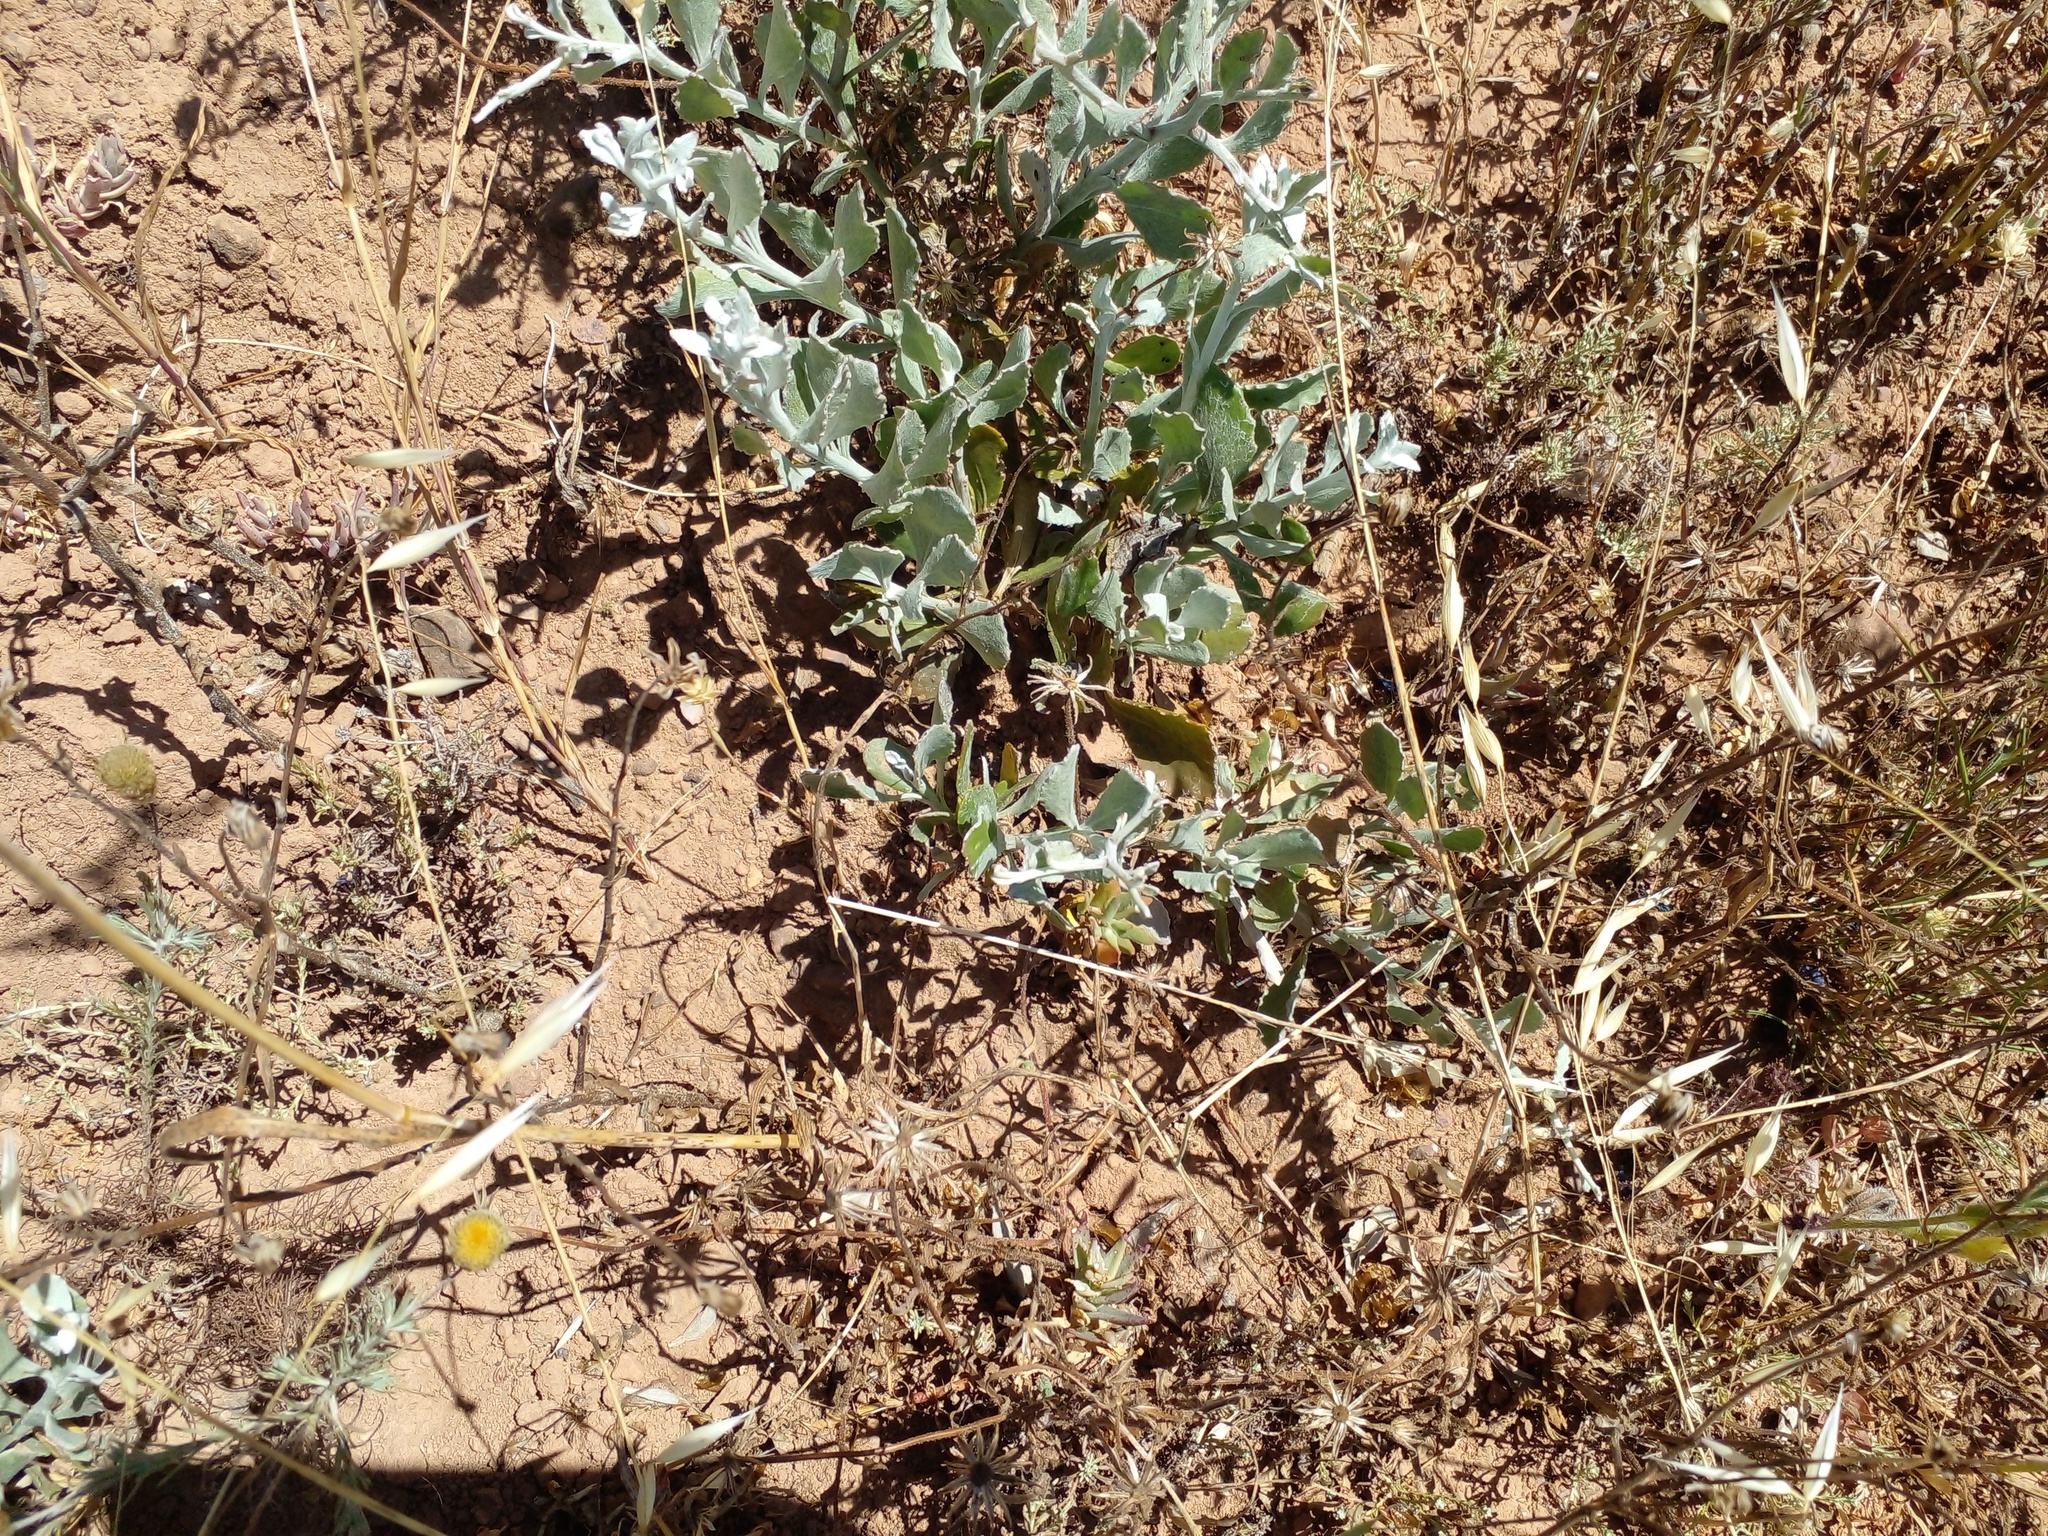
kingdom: Plantae
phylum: Tracheophyta
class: Magnoliopsida
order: Asterales
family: Asteraceae
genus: Osteospermum
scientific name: Osteospermum incanum
